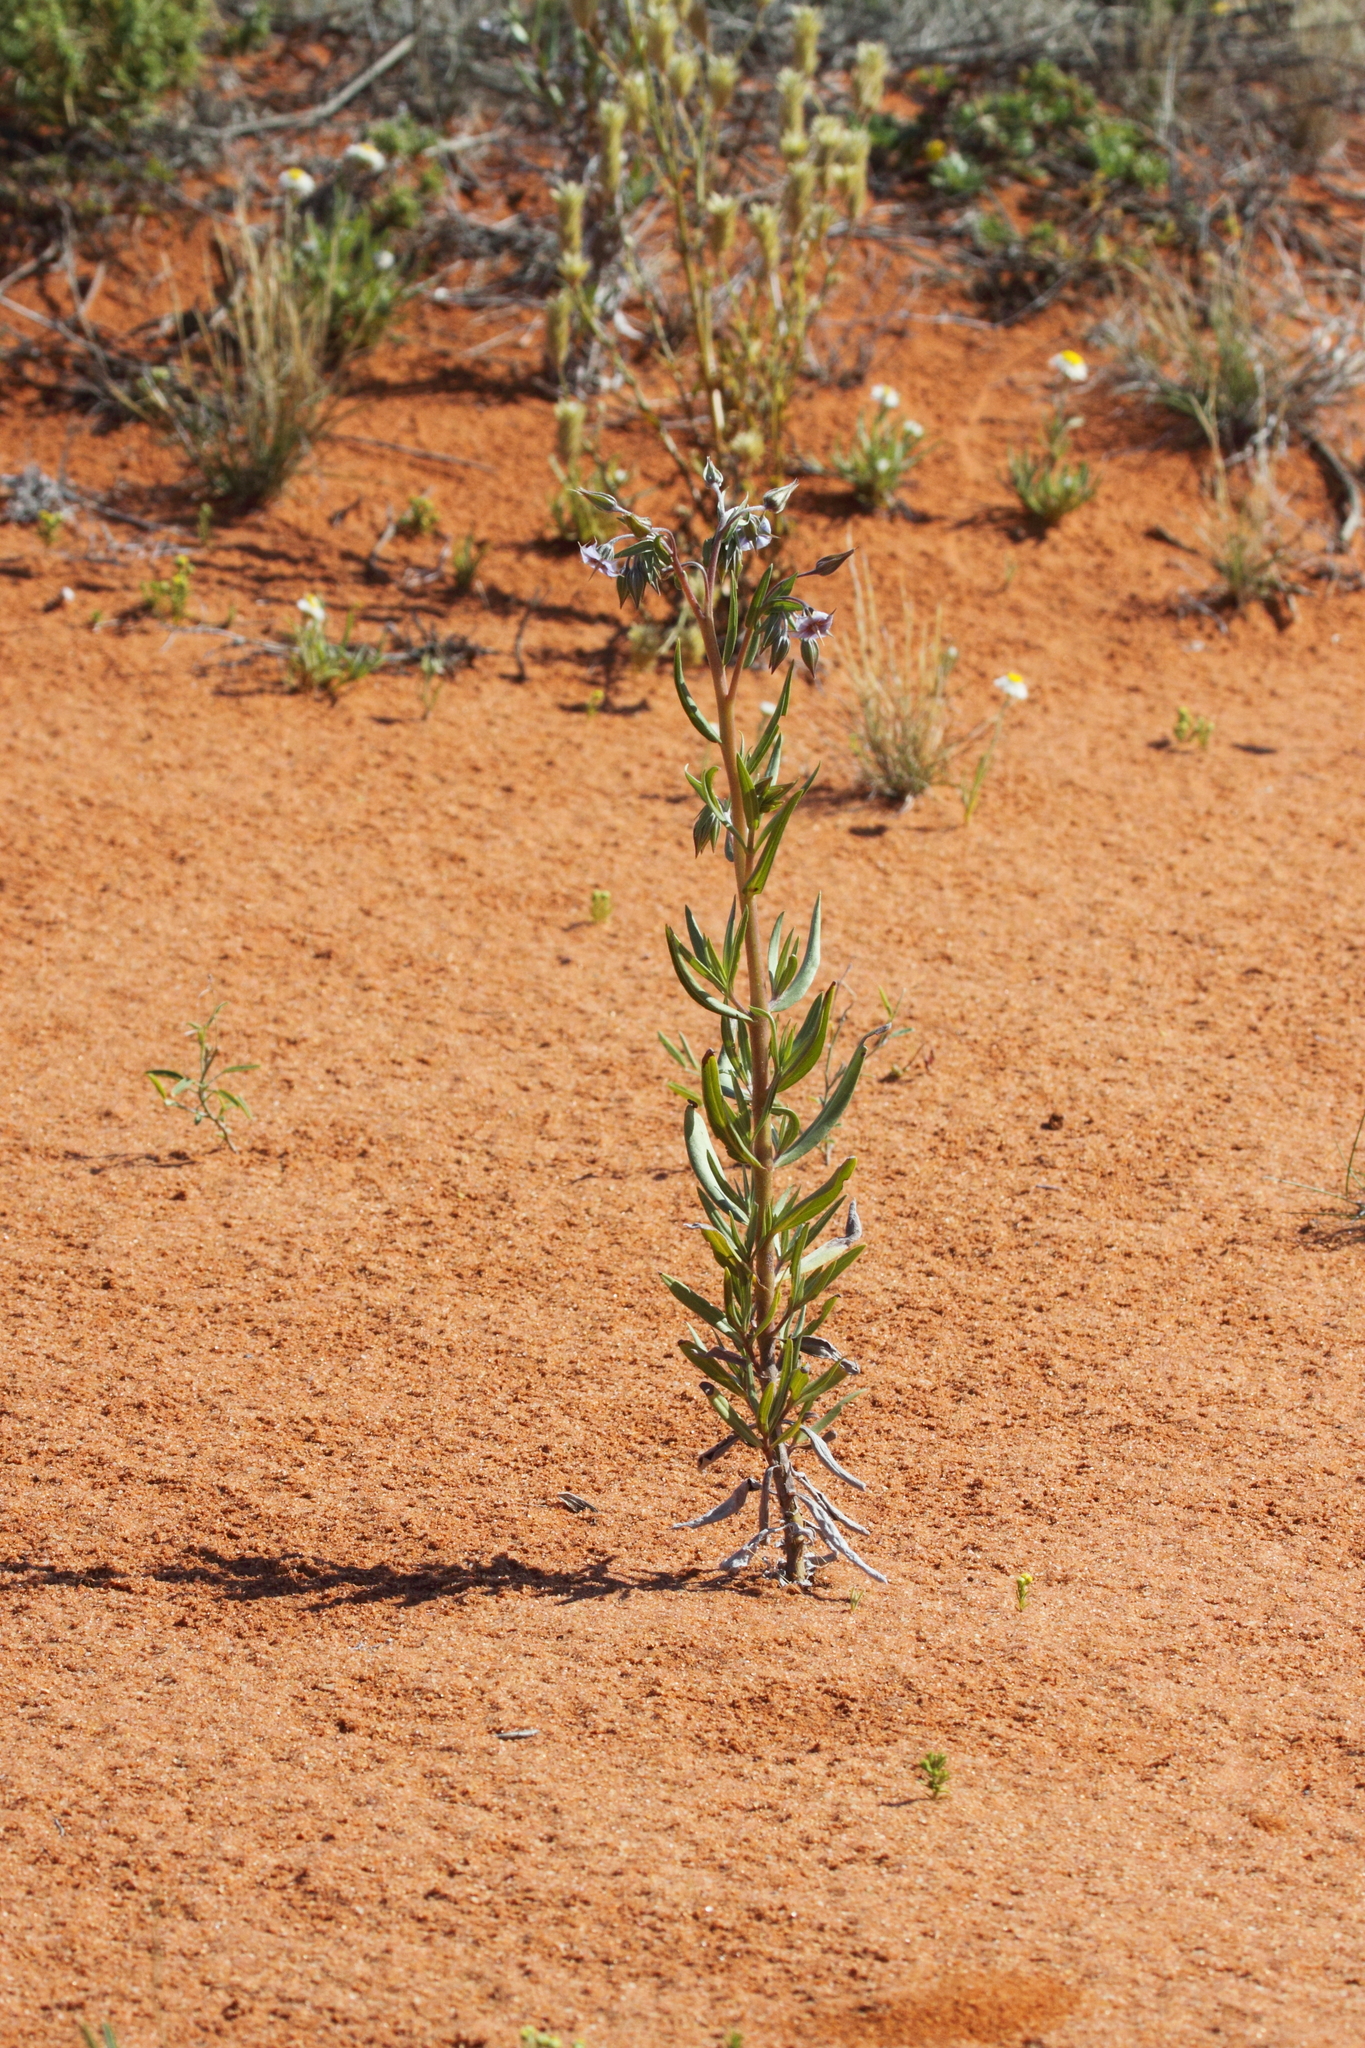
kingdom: Plantae
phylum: Tracheophyta
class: Magnoliopsida
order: Boraginales
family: Boraginaceae
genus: Trichodesma
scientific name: Trichodesma zeylanicum
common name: Camelbush
